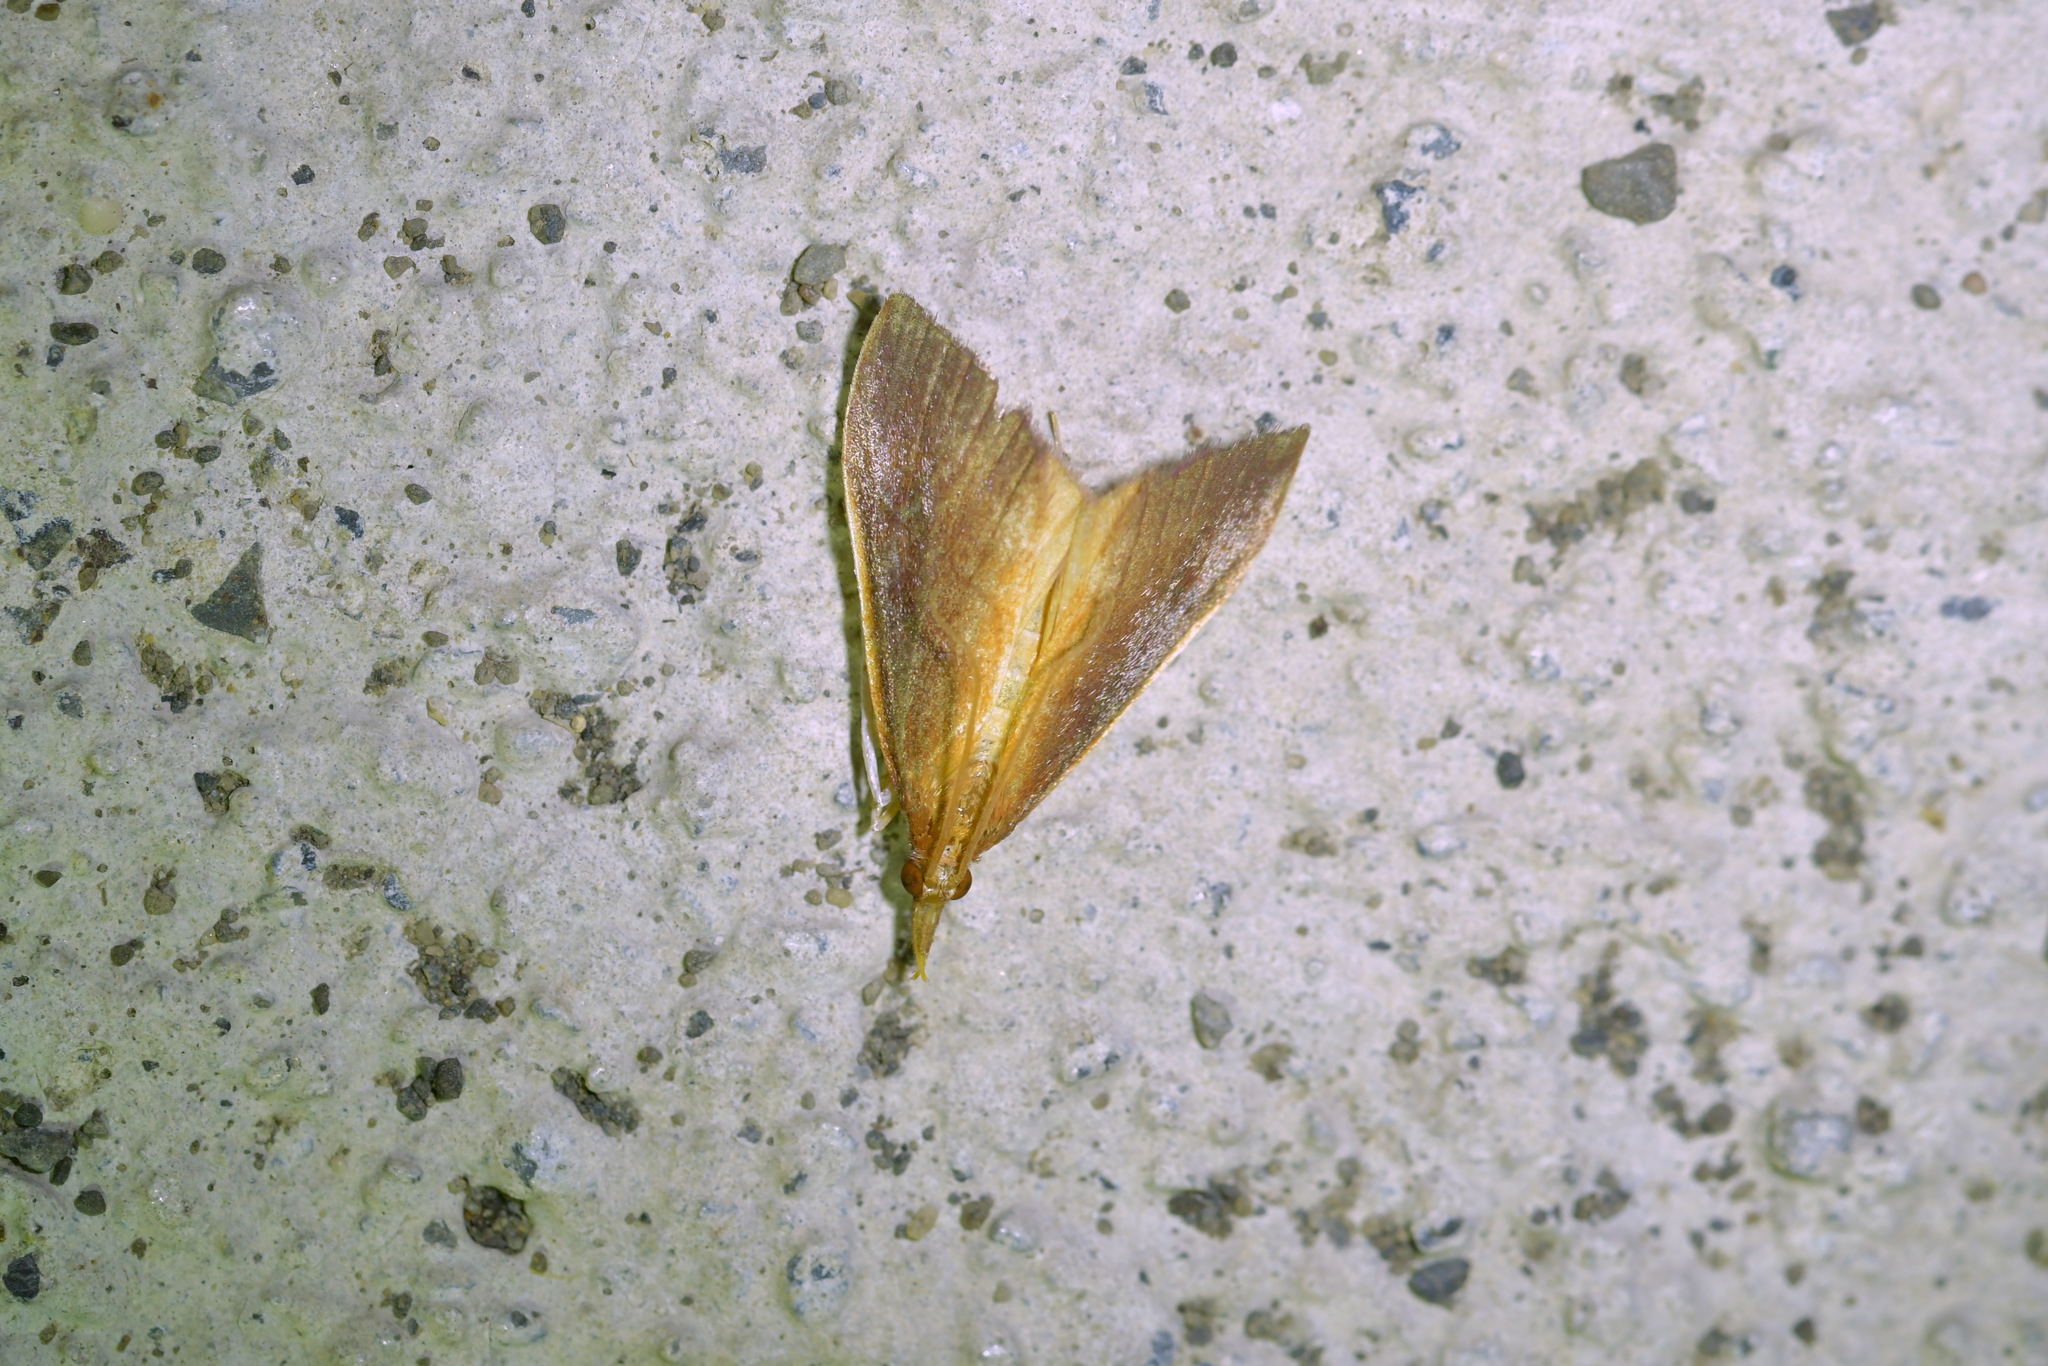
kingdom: Animalia
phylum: Arthropoda
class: Insecta
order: Lepidoptera
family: Crambidae
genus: Udea
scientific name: Udea daiclesalis
